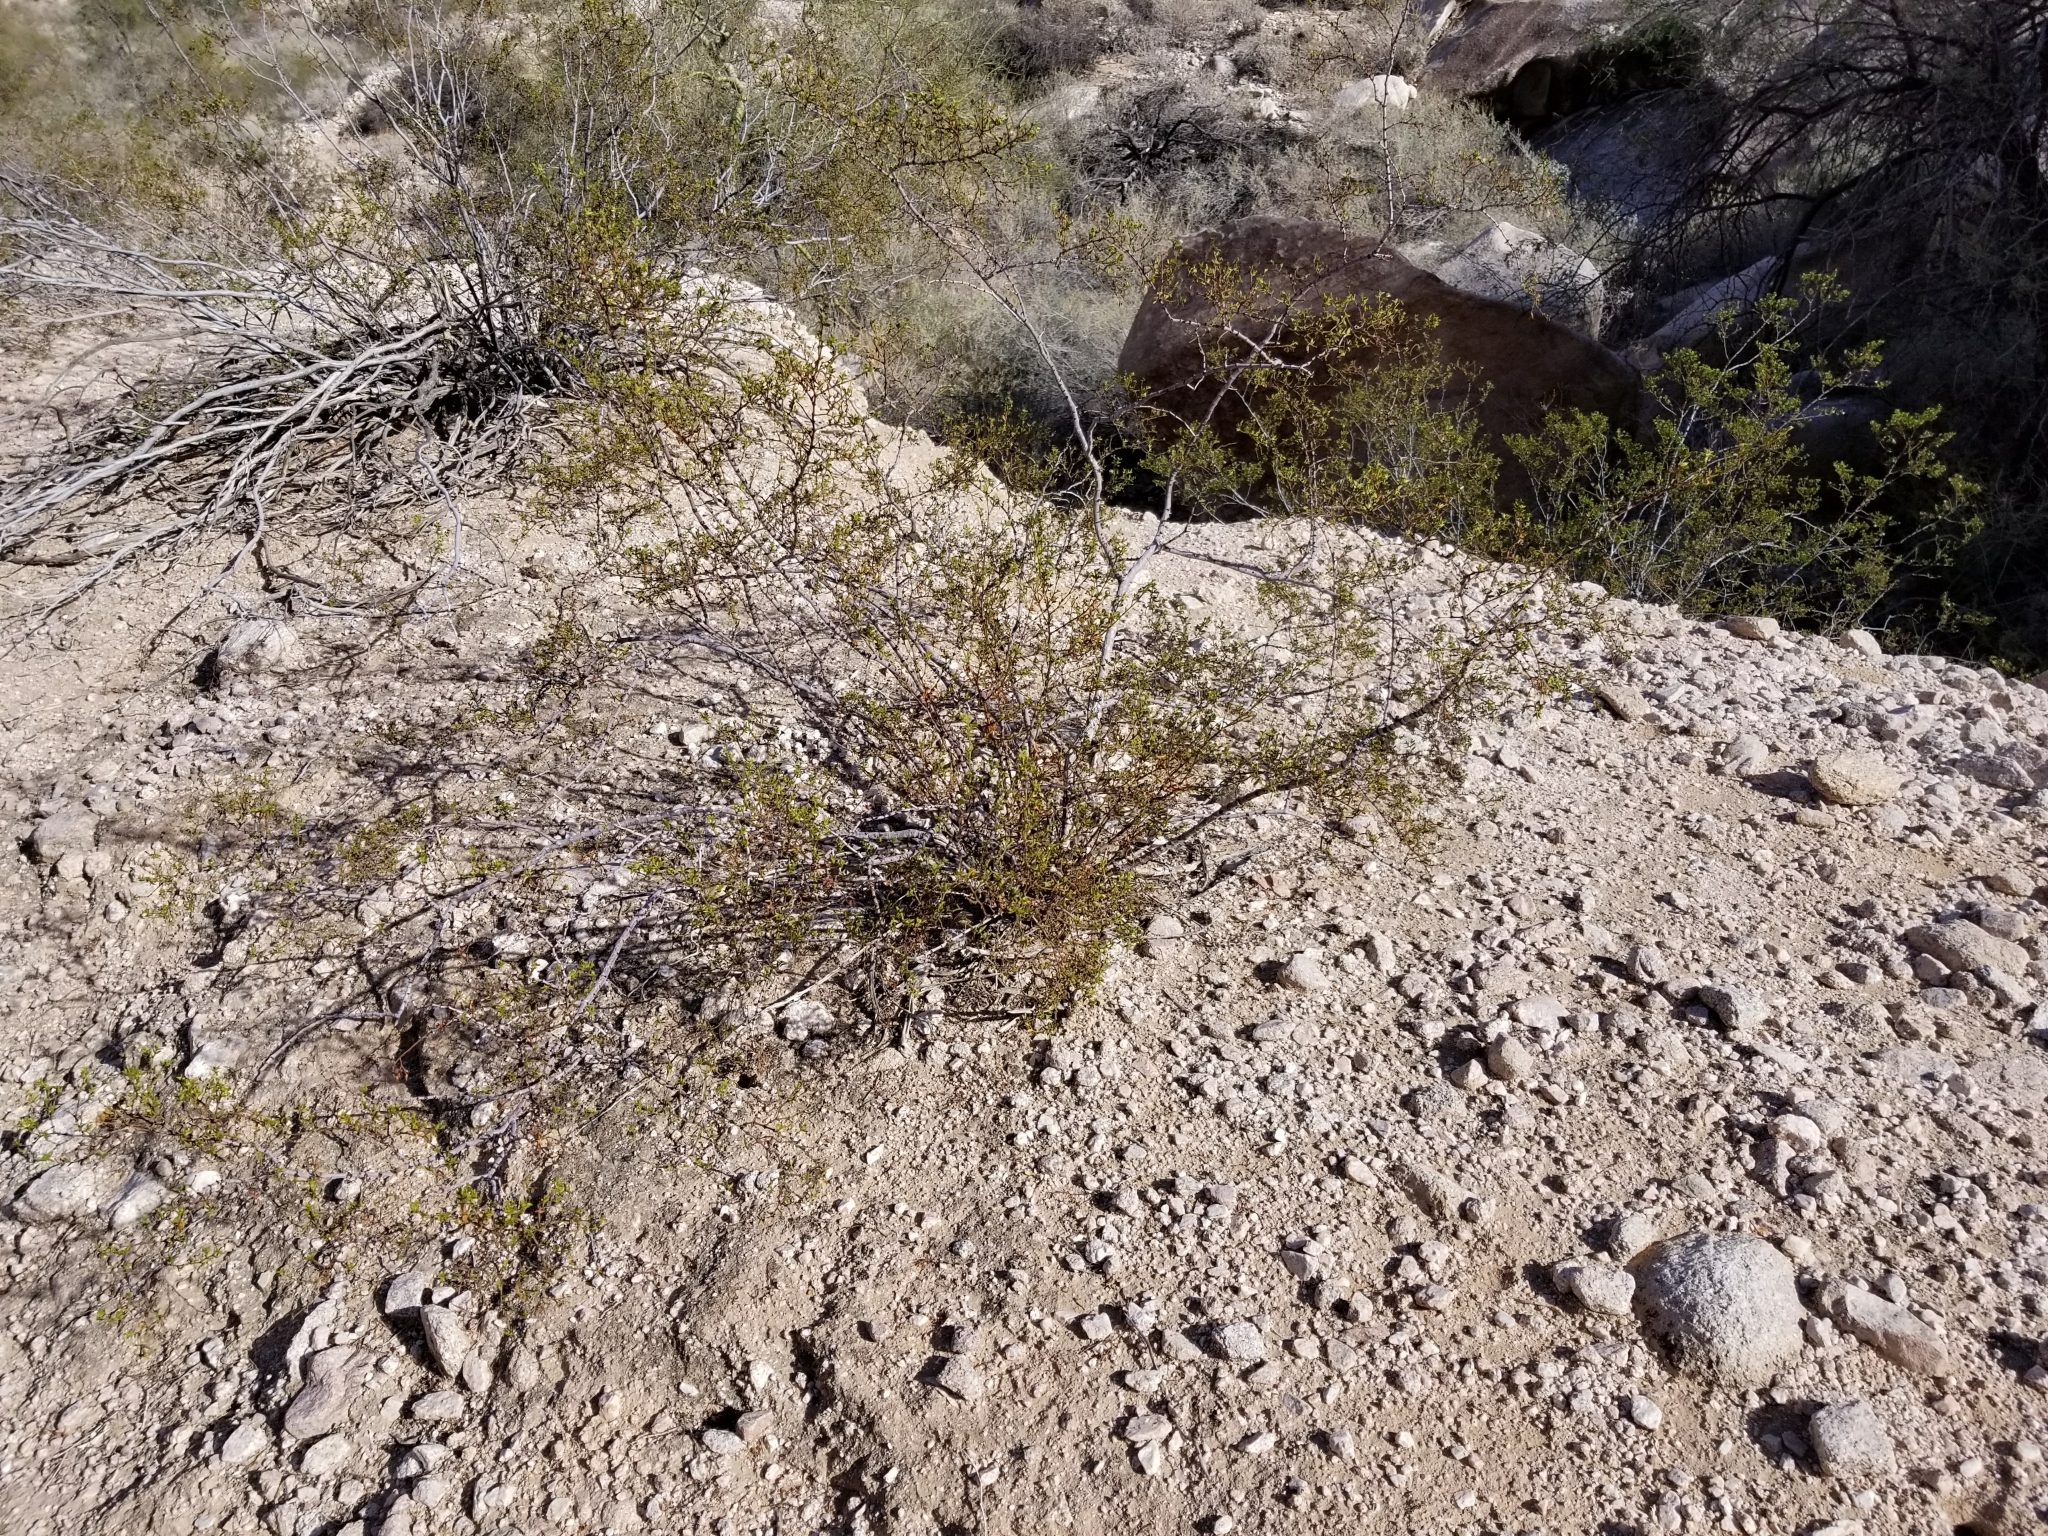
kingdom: Plantae
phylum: Tracheophyta
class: Magnoliopsida
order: Zygophyllales
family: Zygophyllaceae
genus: Larrea
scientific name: Larrea tridentata
